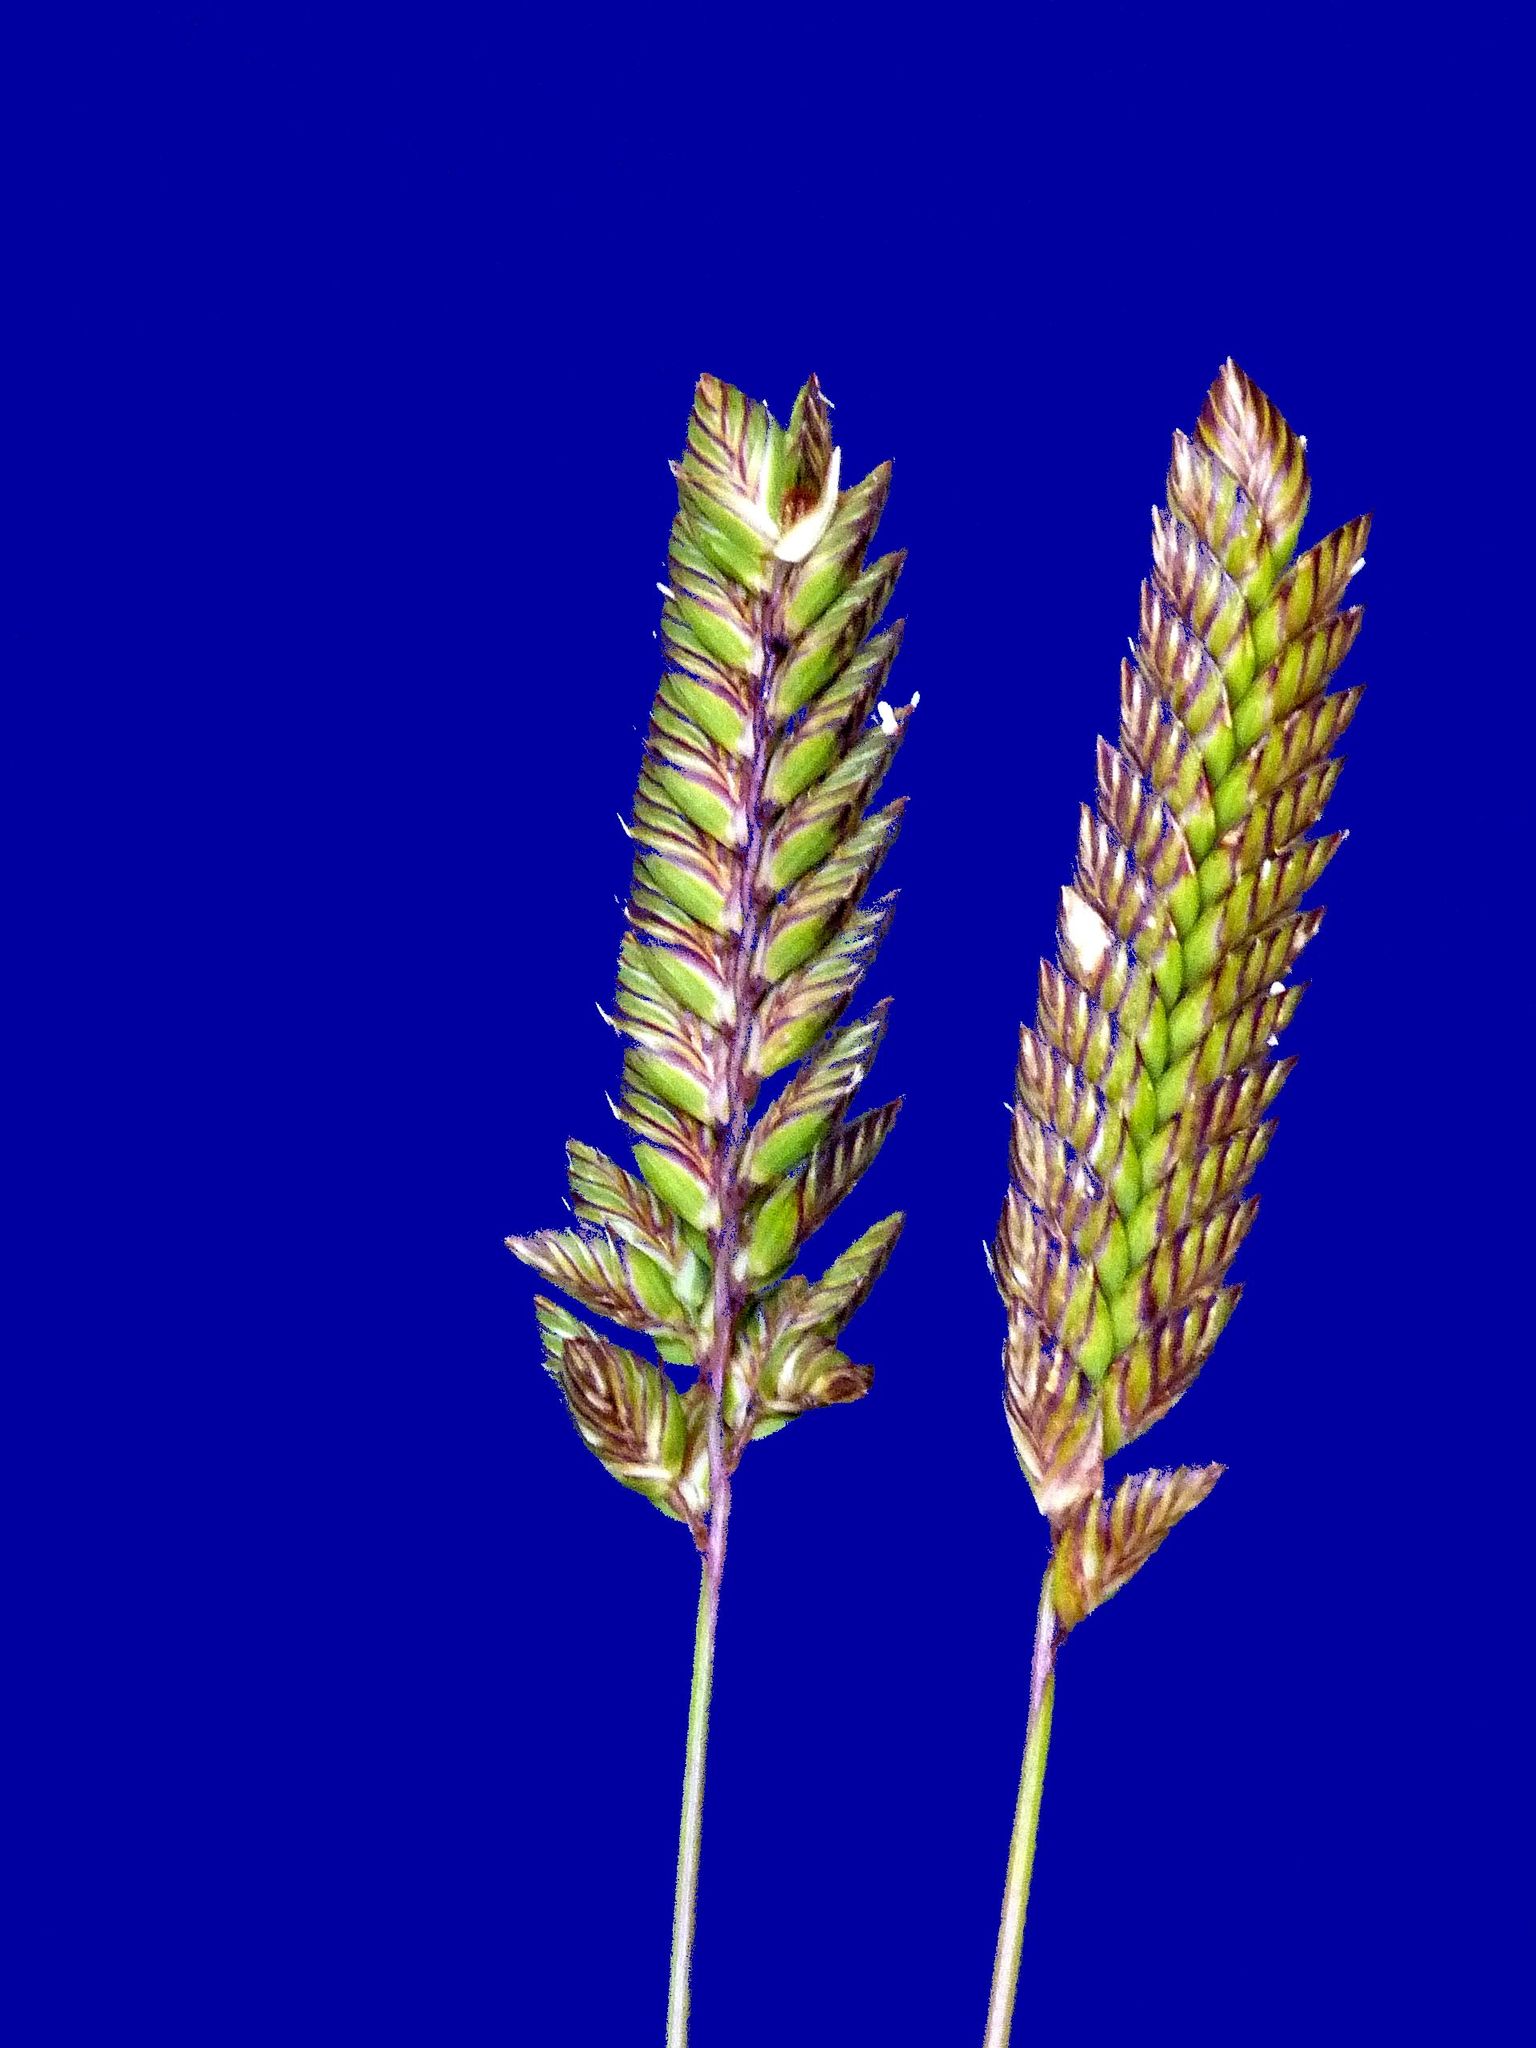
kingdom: Plantae
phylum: Tracheophyta
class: Liliopsida
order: Poales
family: Poaceae
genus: Tribolium
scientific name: Tribolium uniolae
